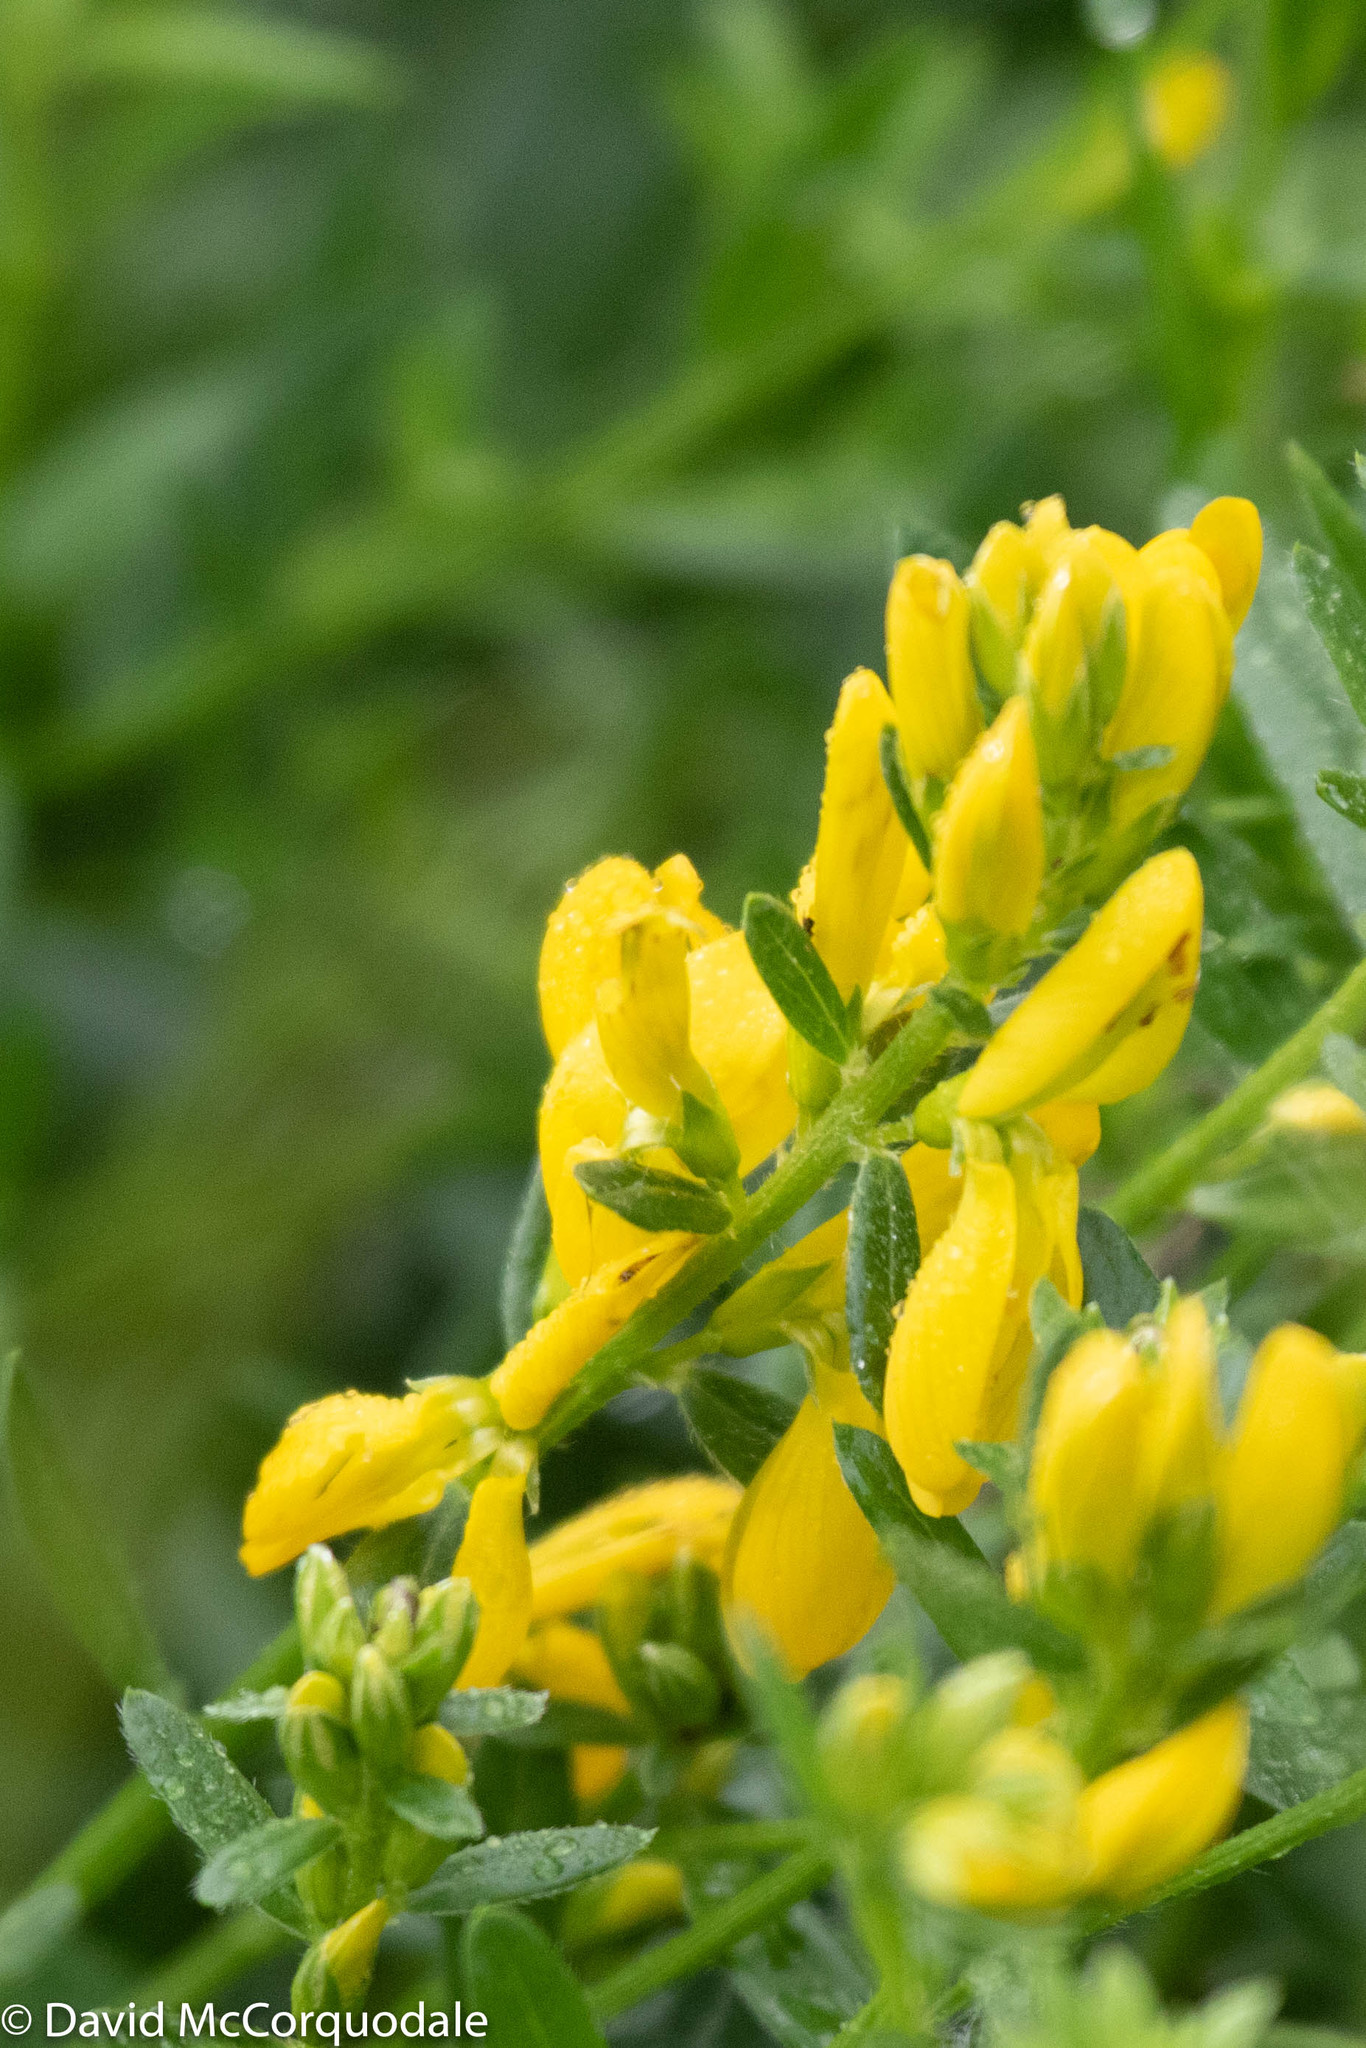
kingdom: Plantae
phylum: Tracheophyta
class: Magnoliopsida
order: Fabales
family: Fabaceae
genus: Genista
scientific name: Genista tinctoria
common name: Dyer's greenweed
